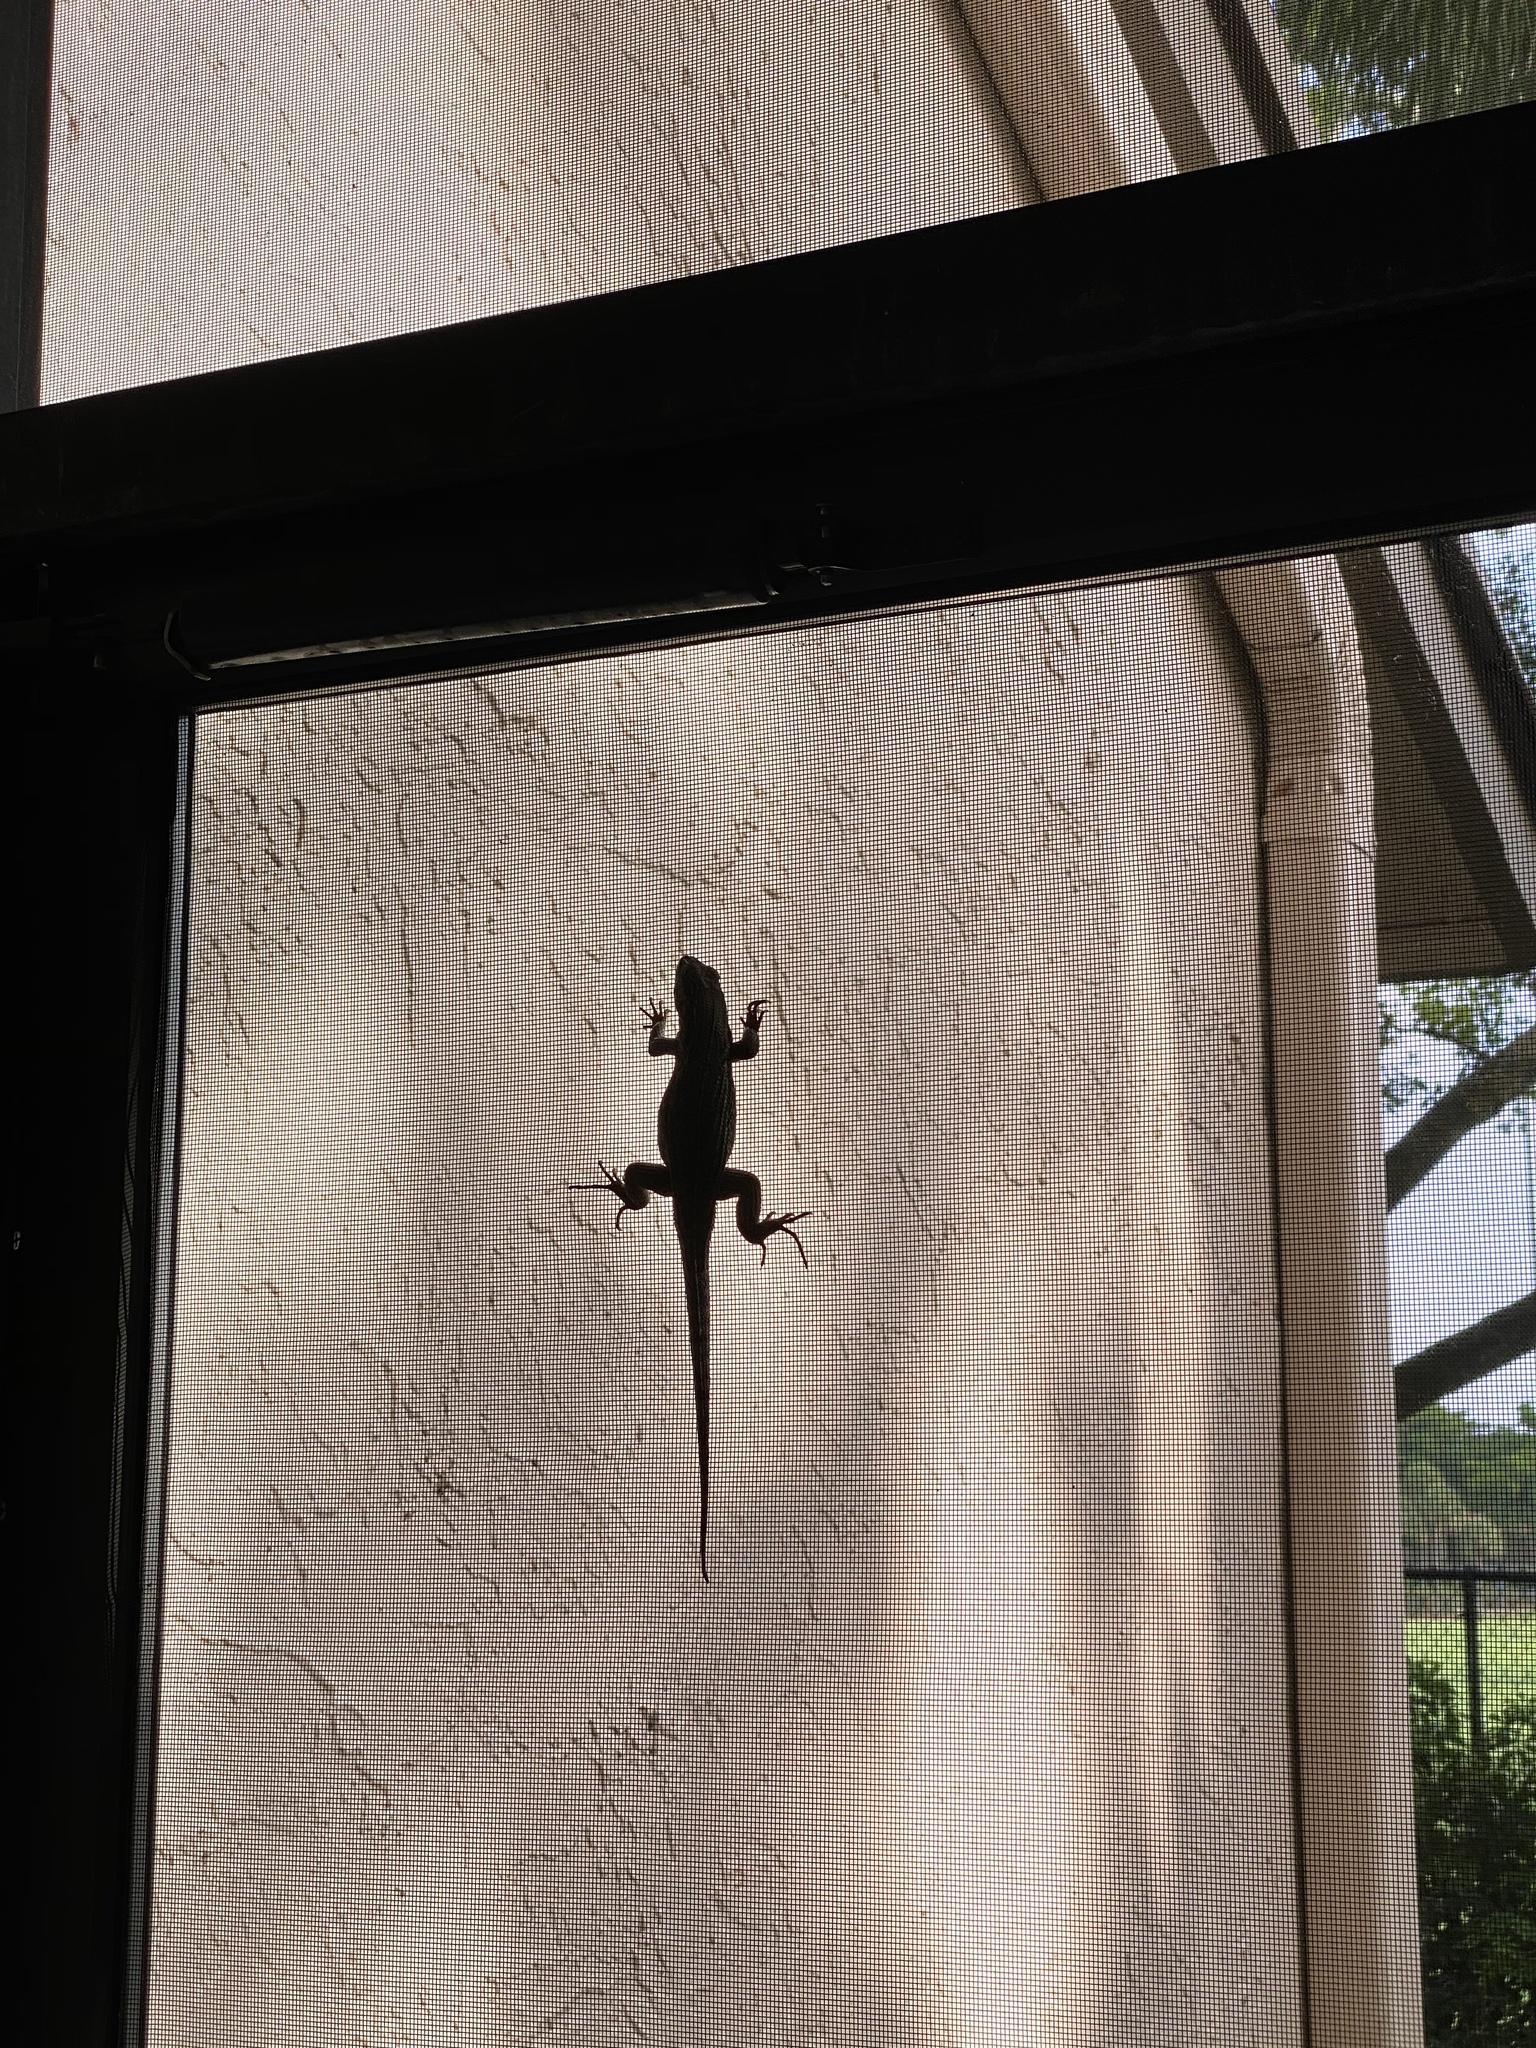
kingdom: Animalia
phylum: Chordata
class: Squamata
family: Leiocephalidae
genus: Leiocephalus
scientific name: Leiocephalus carinatus
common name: Northern curly-tailed lizard
